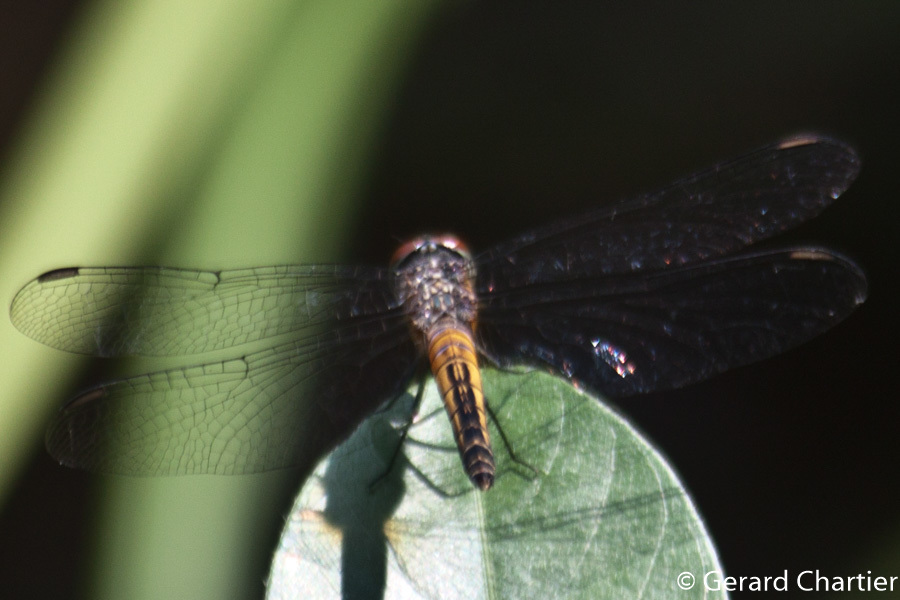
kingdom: Animalia
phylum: Arthropoda
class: Insecta
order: Odonata
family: Libellulidae
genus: Brachydiplax
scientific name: Brachydiplax chalybea
